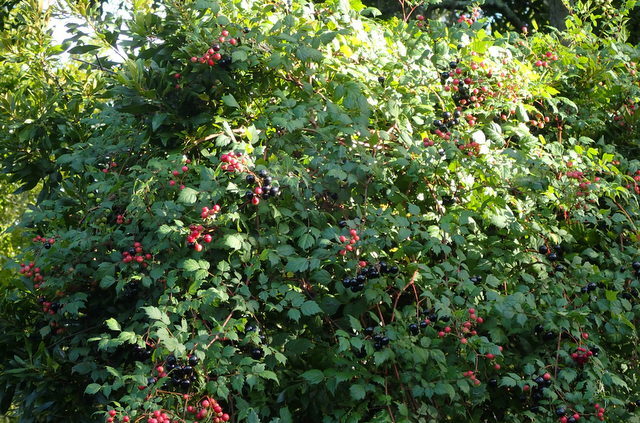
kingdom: Plantae
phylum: Tracheophyta
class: Magnoliopsida
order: Vitales
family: Vitaceae
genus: Nekemias
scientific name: Nekemias arborea
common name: Peppervine
